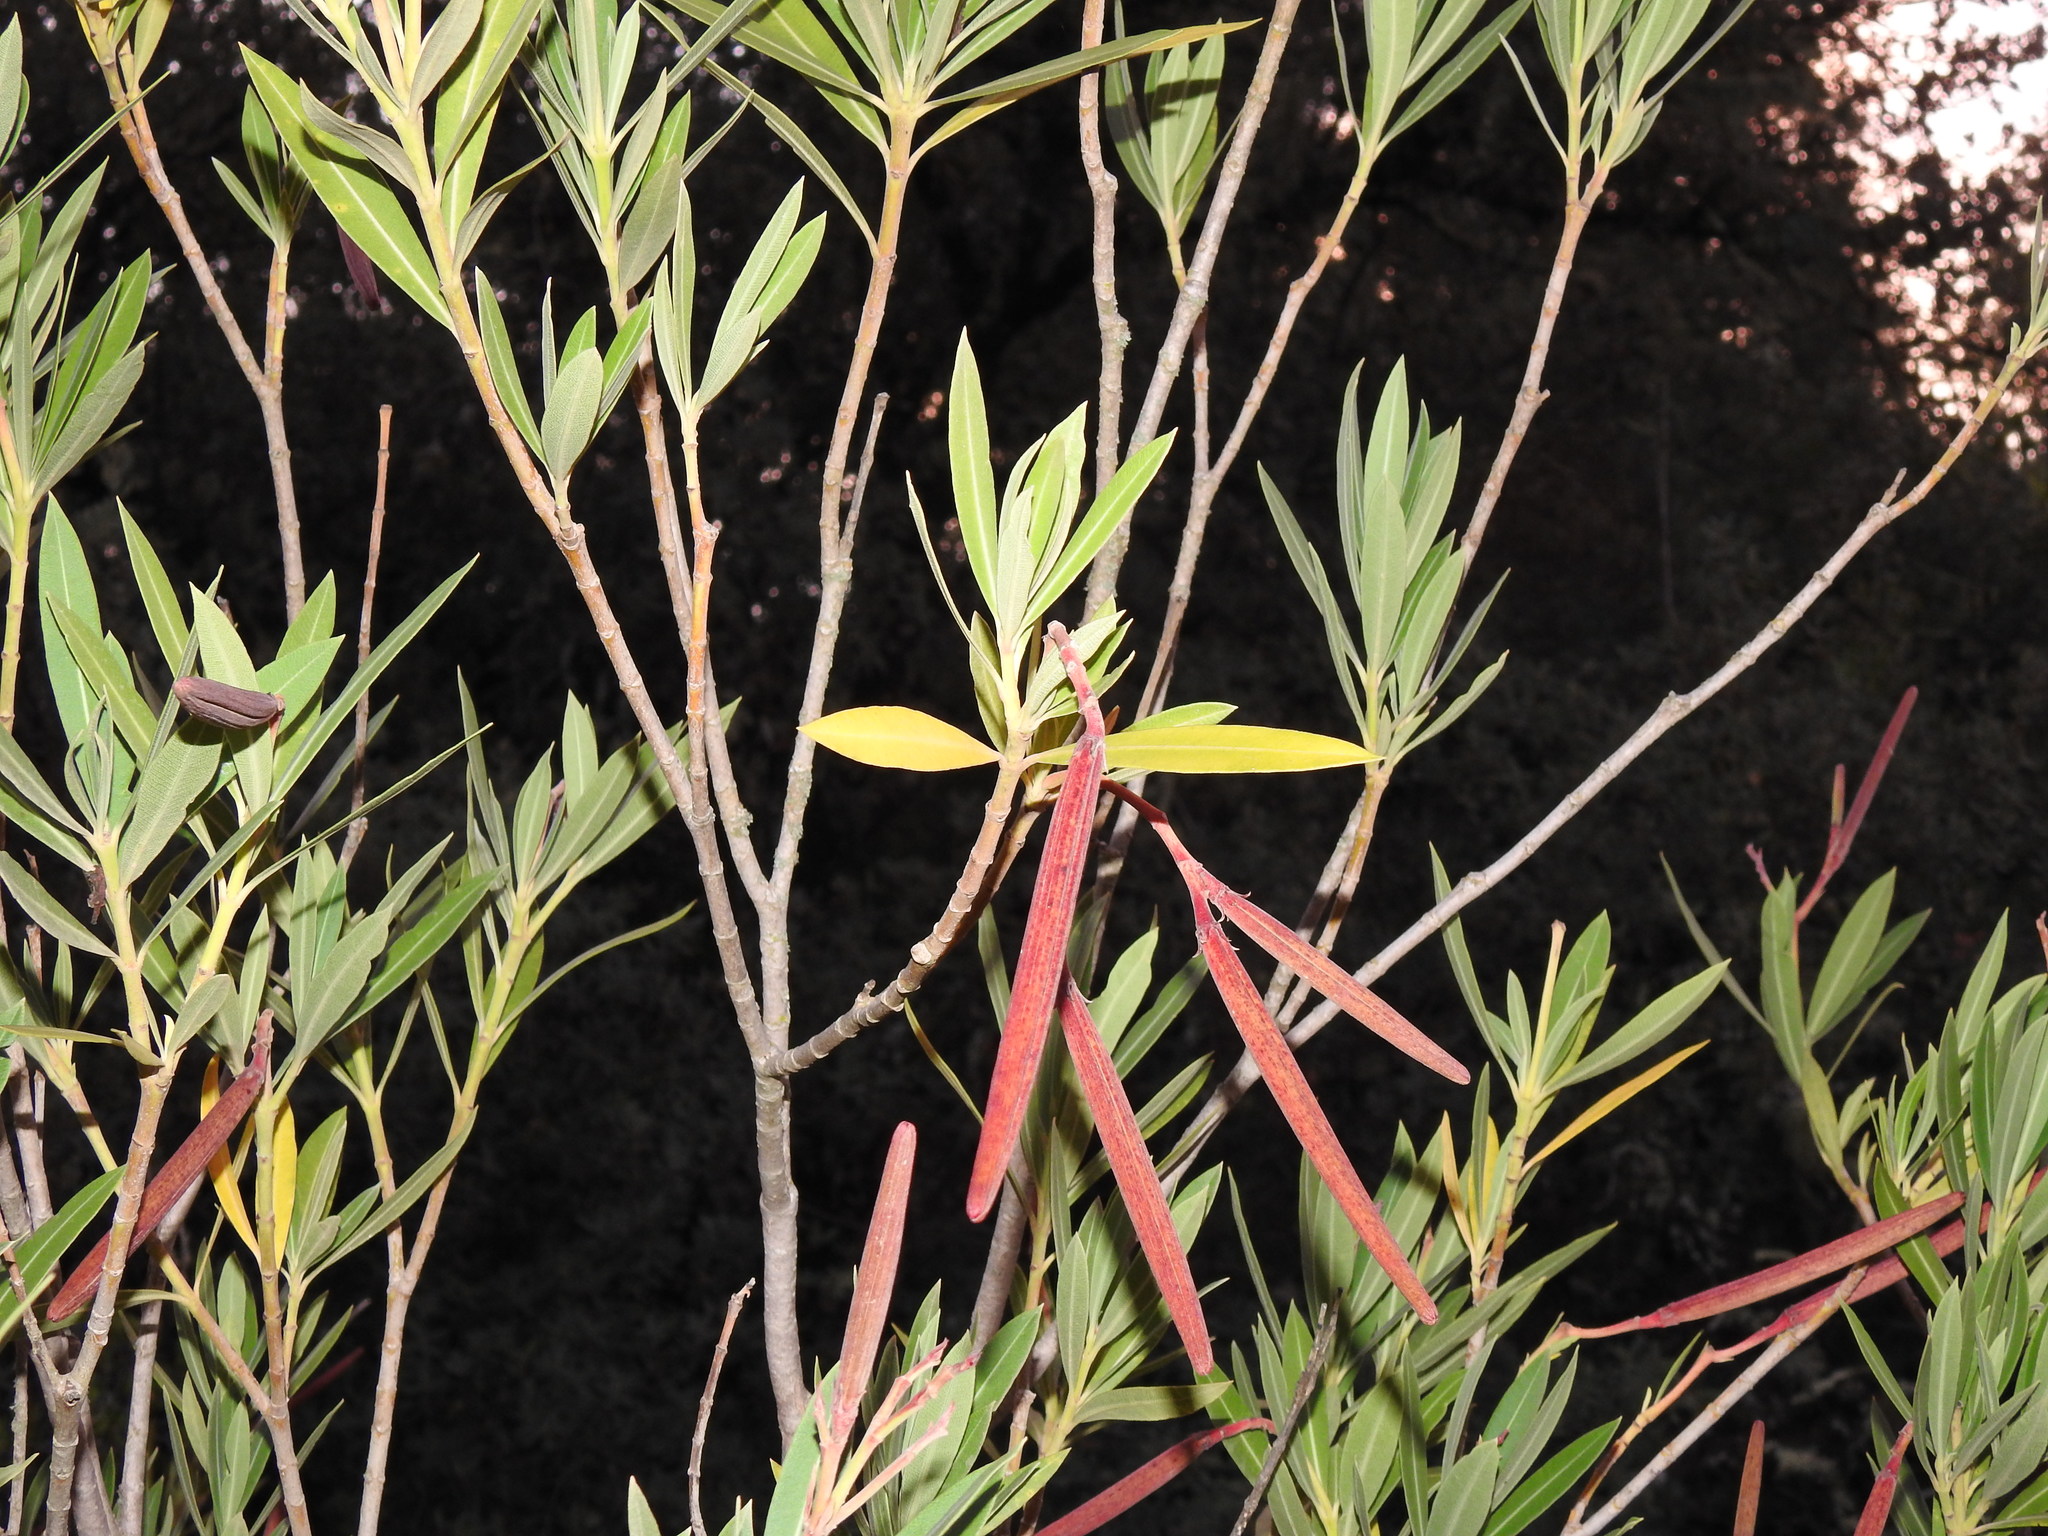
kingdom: Plantae
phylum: Tracheophyta
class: Magnoliopsida
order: Gentianales
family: Apocynaceae
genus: Nerium
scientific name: Nerium oleander
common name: Oleander
